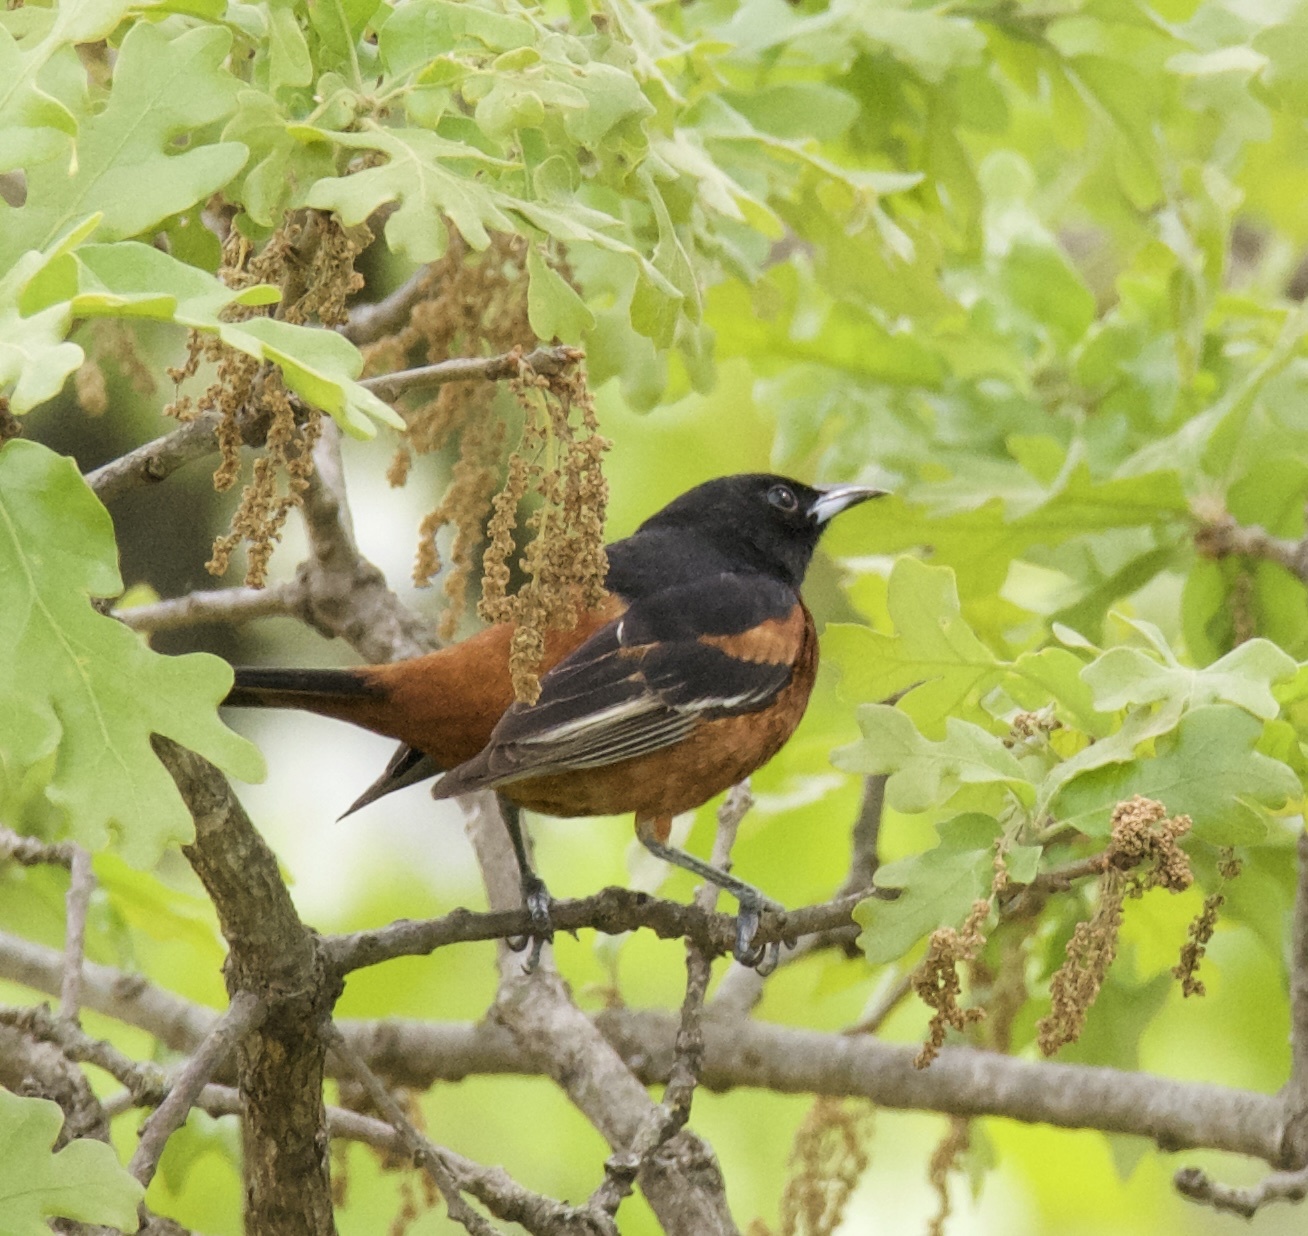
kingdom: Animalia
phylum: Chordata
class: Aves
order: Passeriformes
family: Icteridae
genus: Icterus
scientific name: Icterus spurius
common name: Orchard oriole
